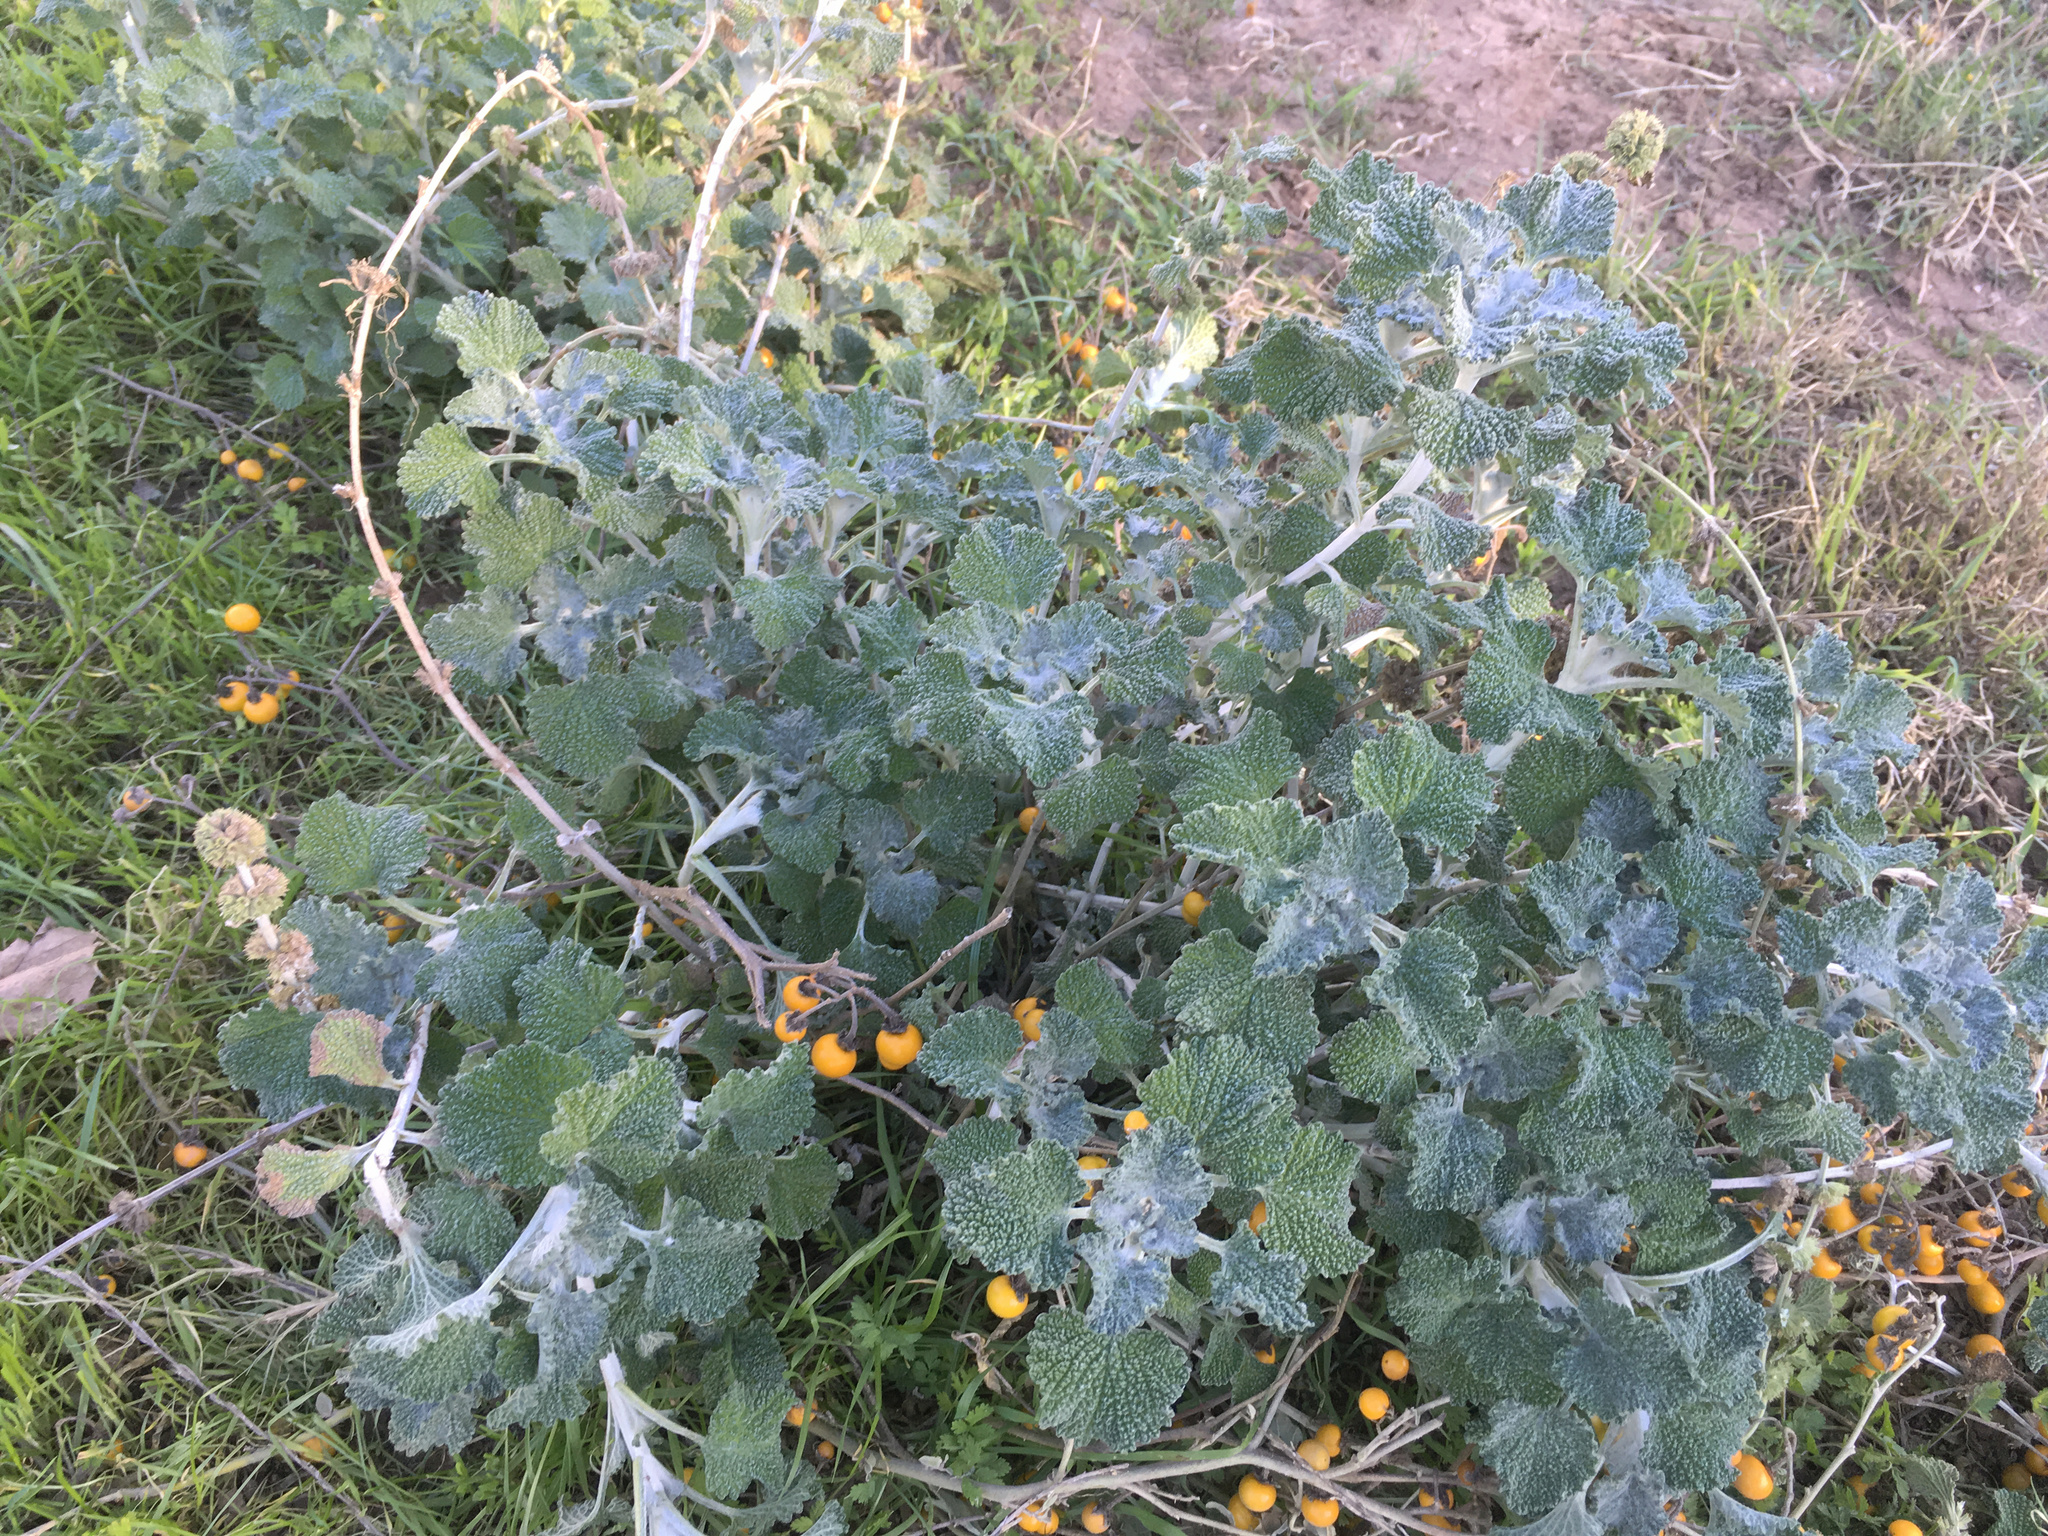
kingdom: Plantae
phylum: Tracheophyta
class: Magnoliopsida
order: Lamiales
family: Lamiaceae
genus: Marrubium
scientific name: Marrubium vulgare
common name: Horehound
